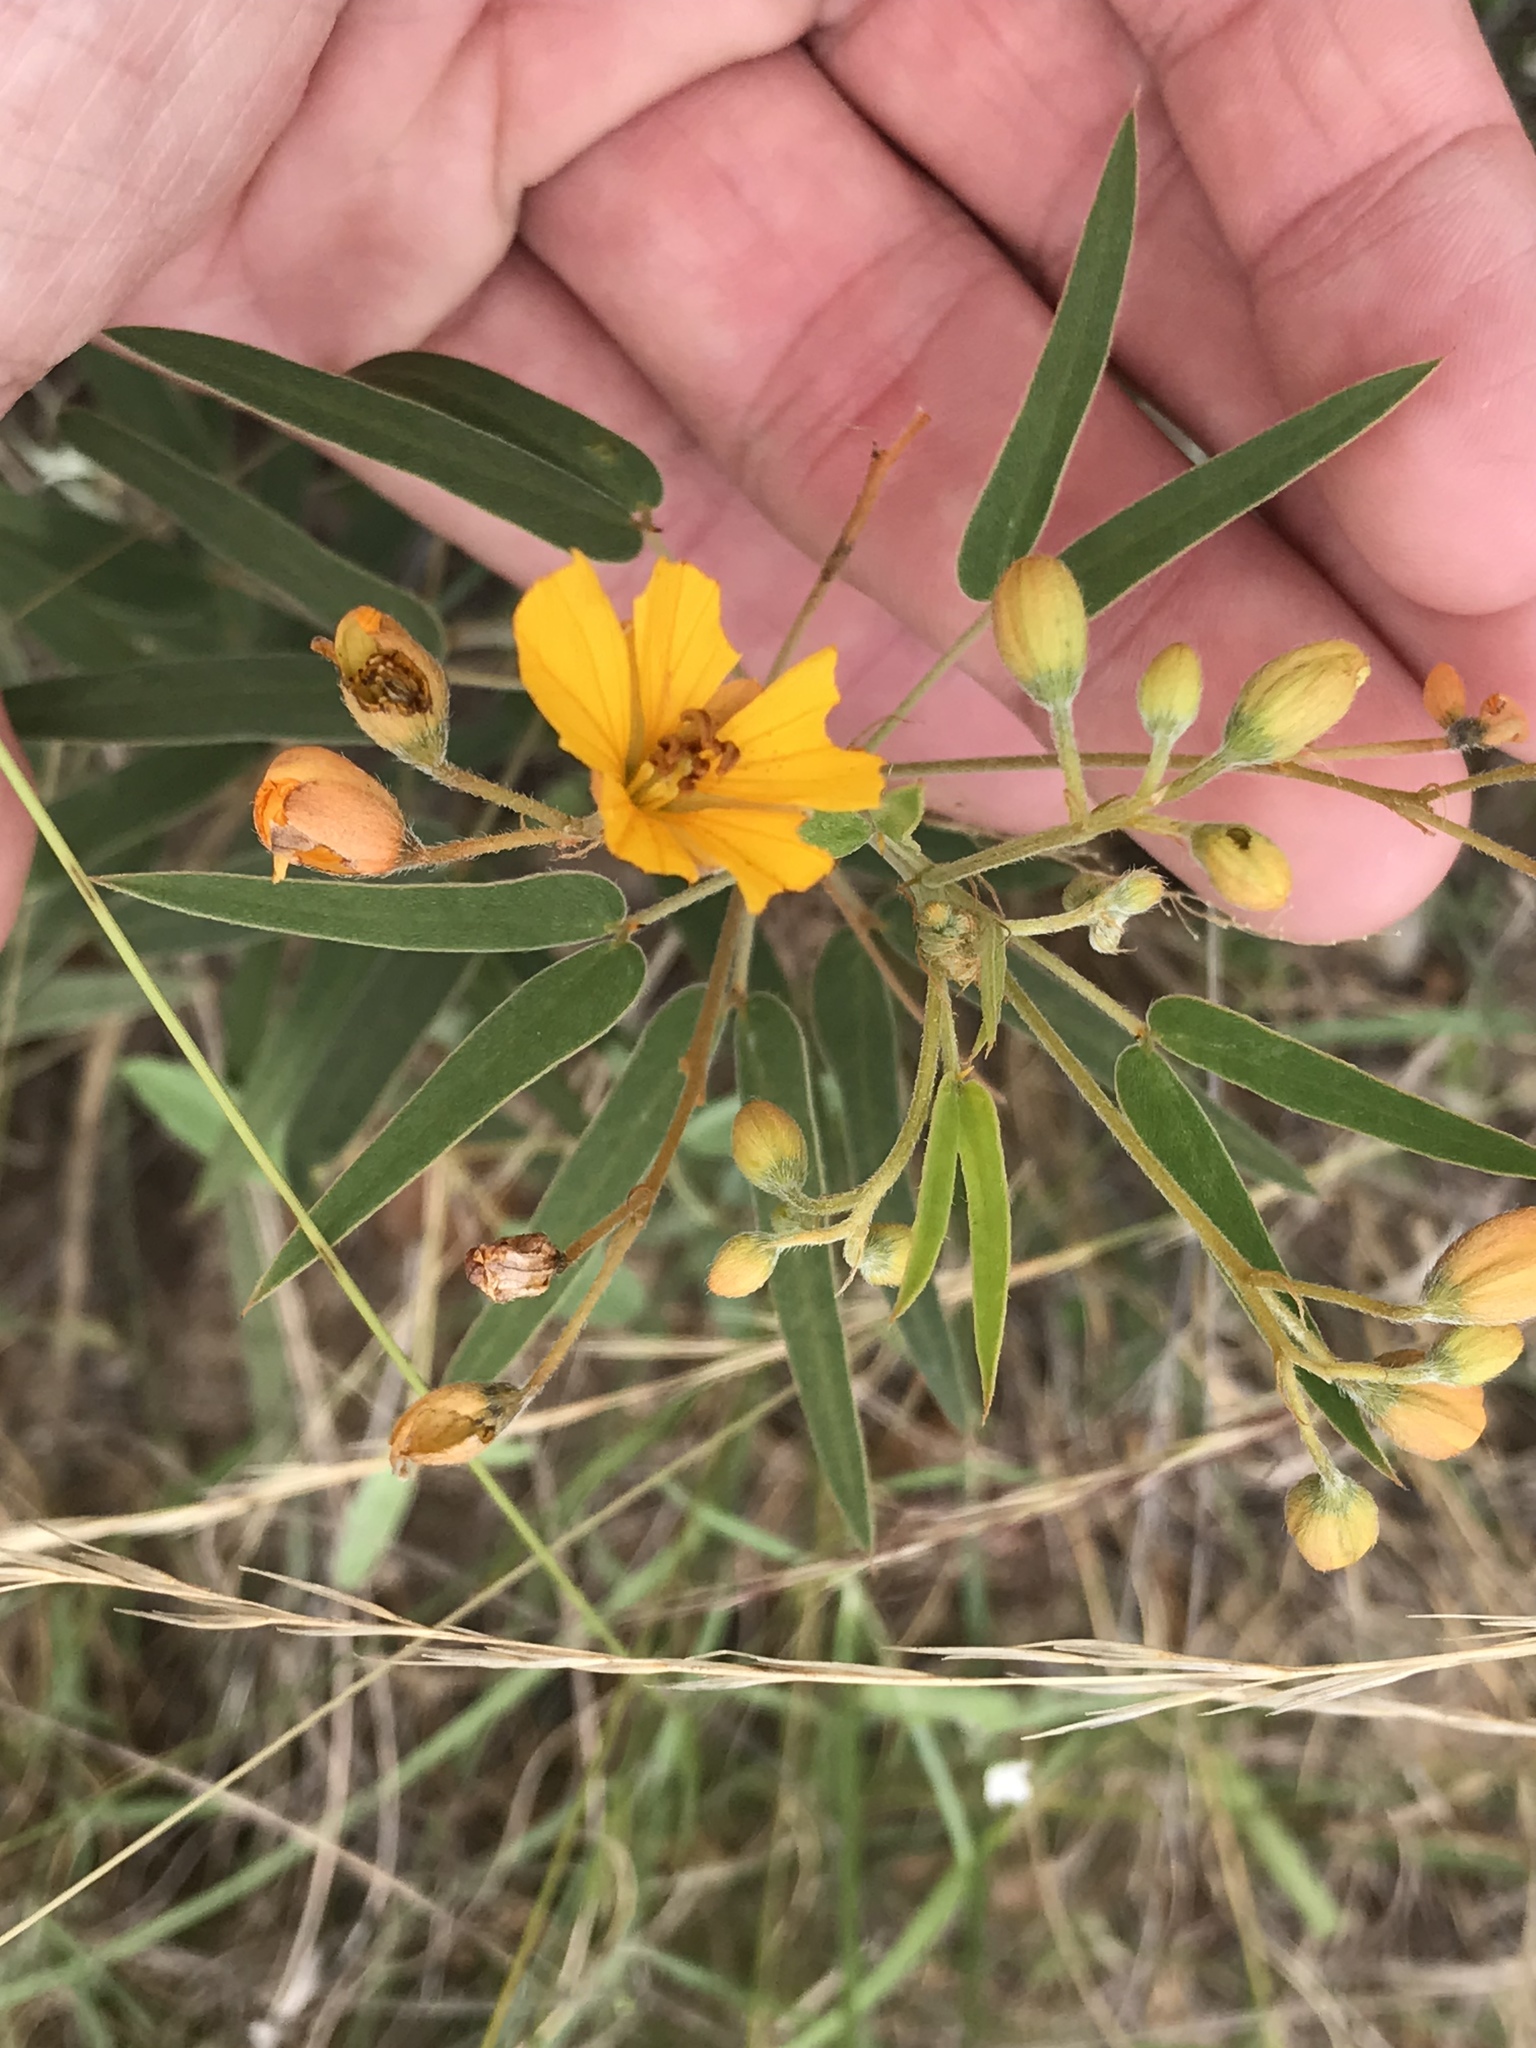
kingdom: Plantae
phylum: Tracheophyta
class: Magnoliopsida
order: Fabales
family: Fabaceae
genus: Senna
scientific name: Senna roemeriana
